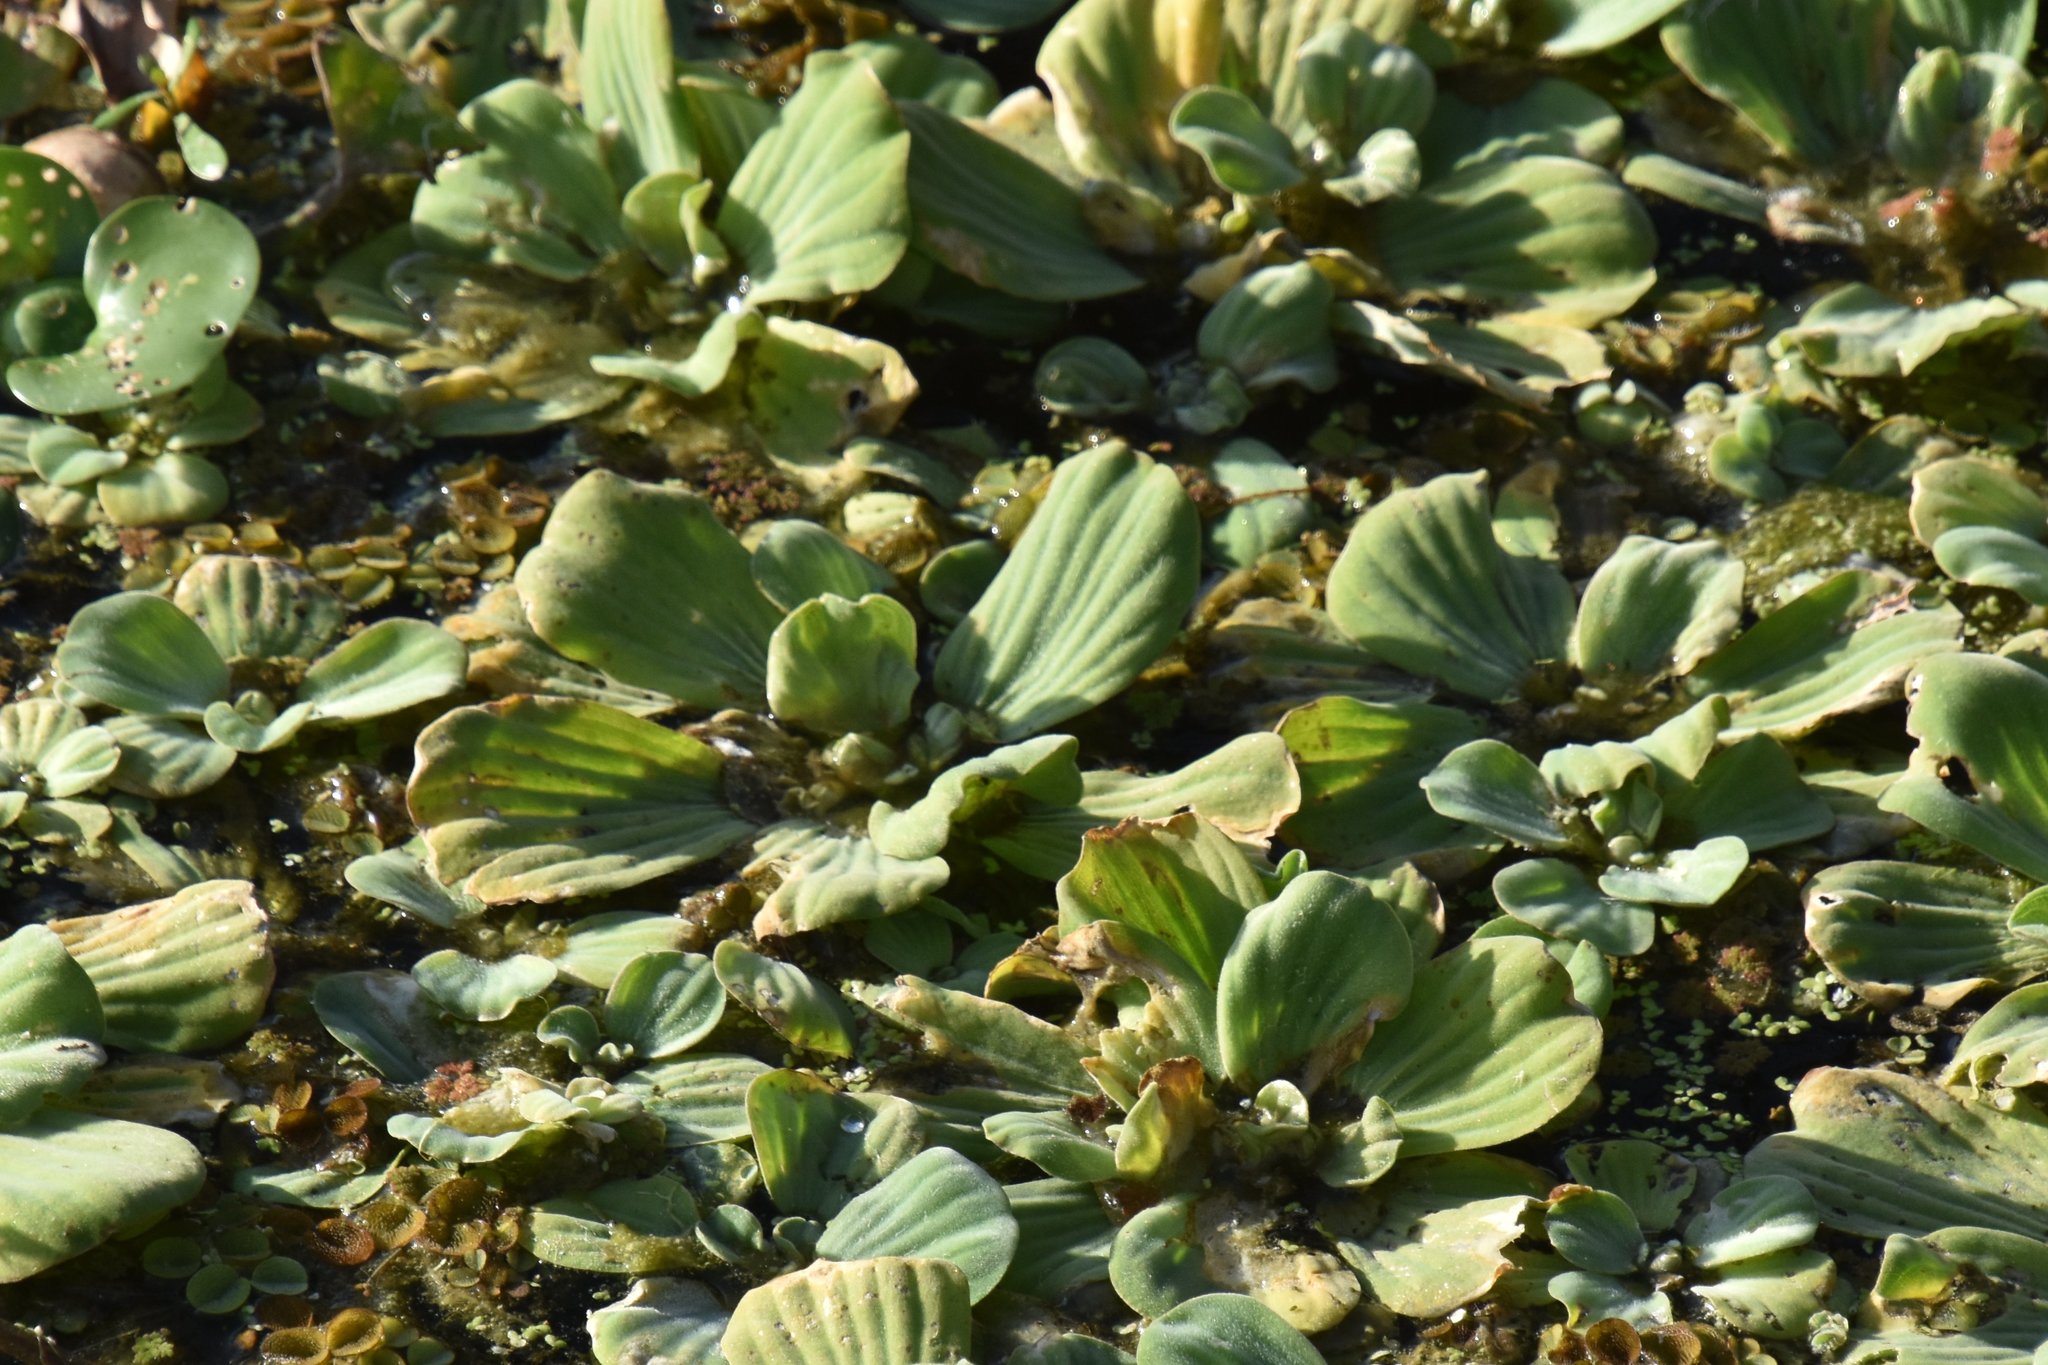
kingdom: Plantae
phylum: Tracheophyta
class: Liliopsida
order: Alismatales
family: Araceae
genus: Pistia
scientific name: Pistia stratiotes
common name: Water lettuce
